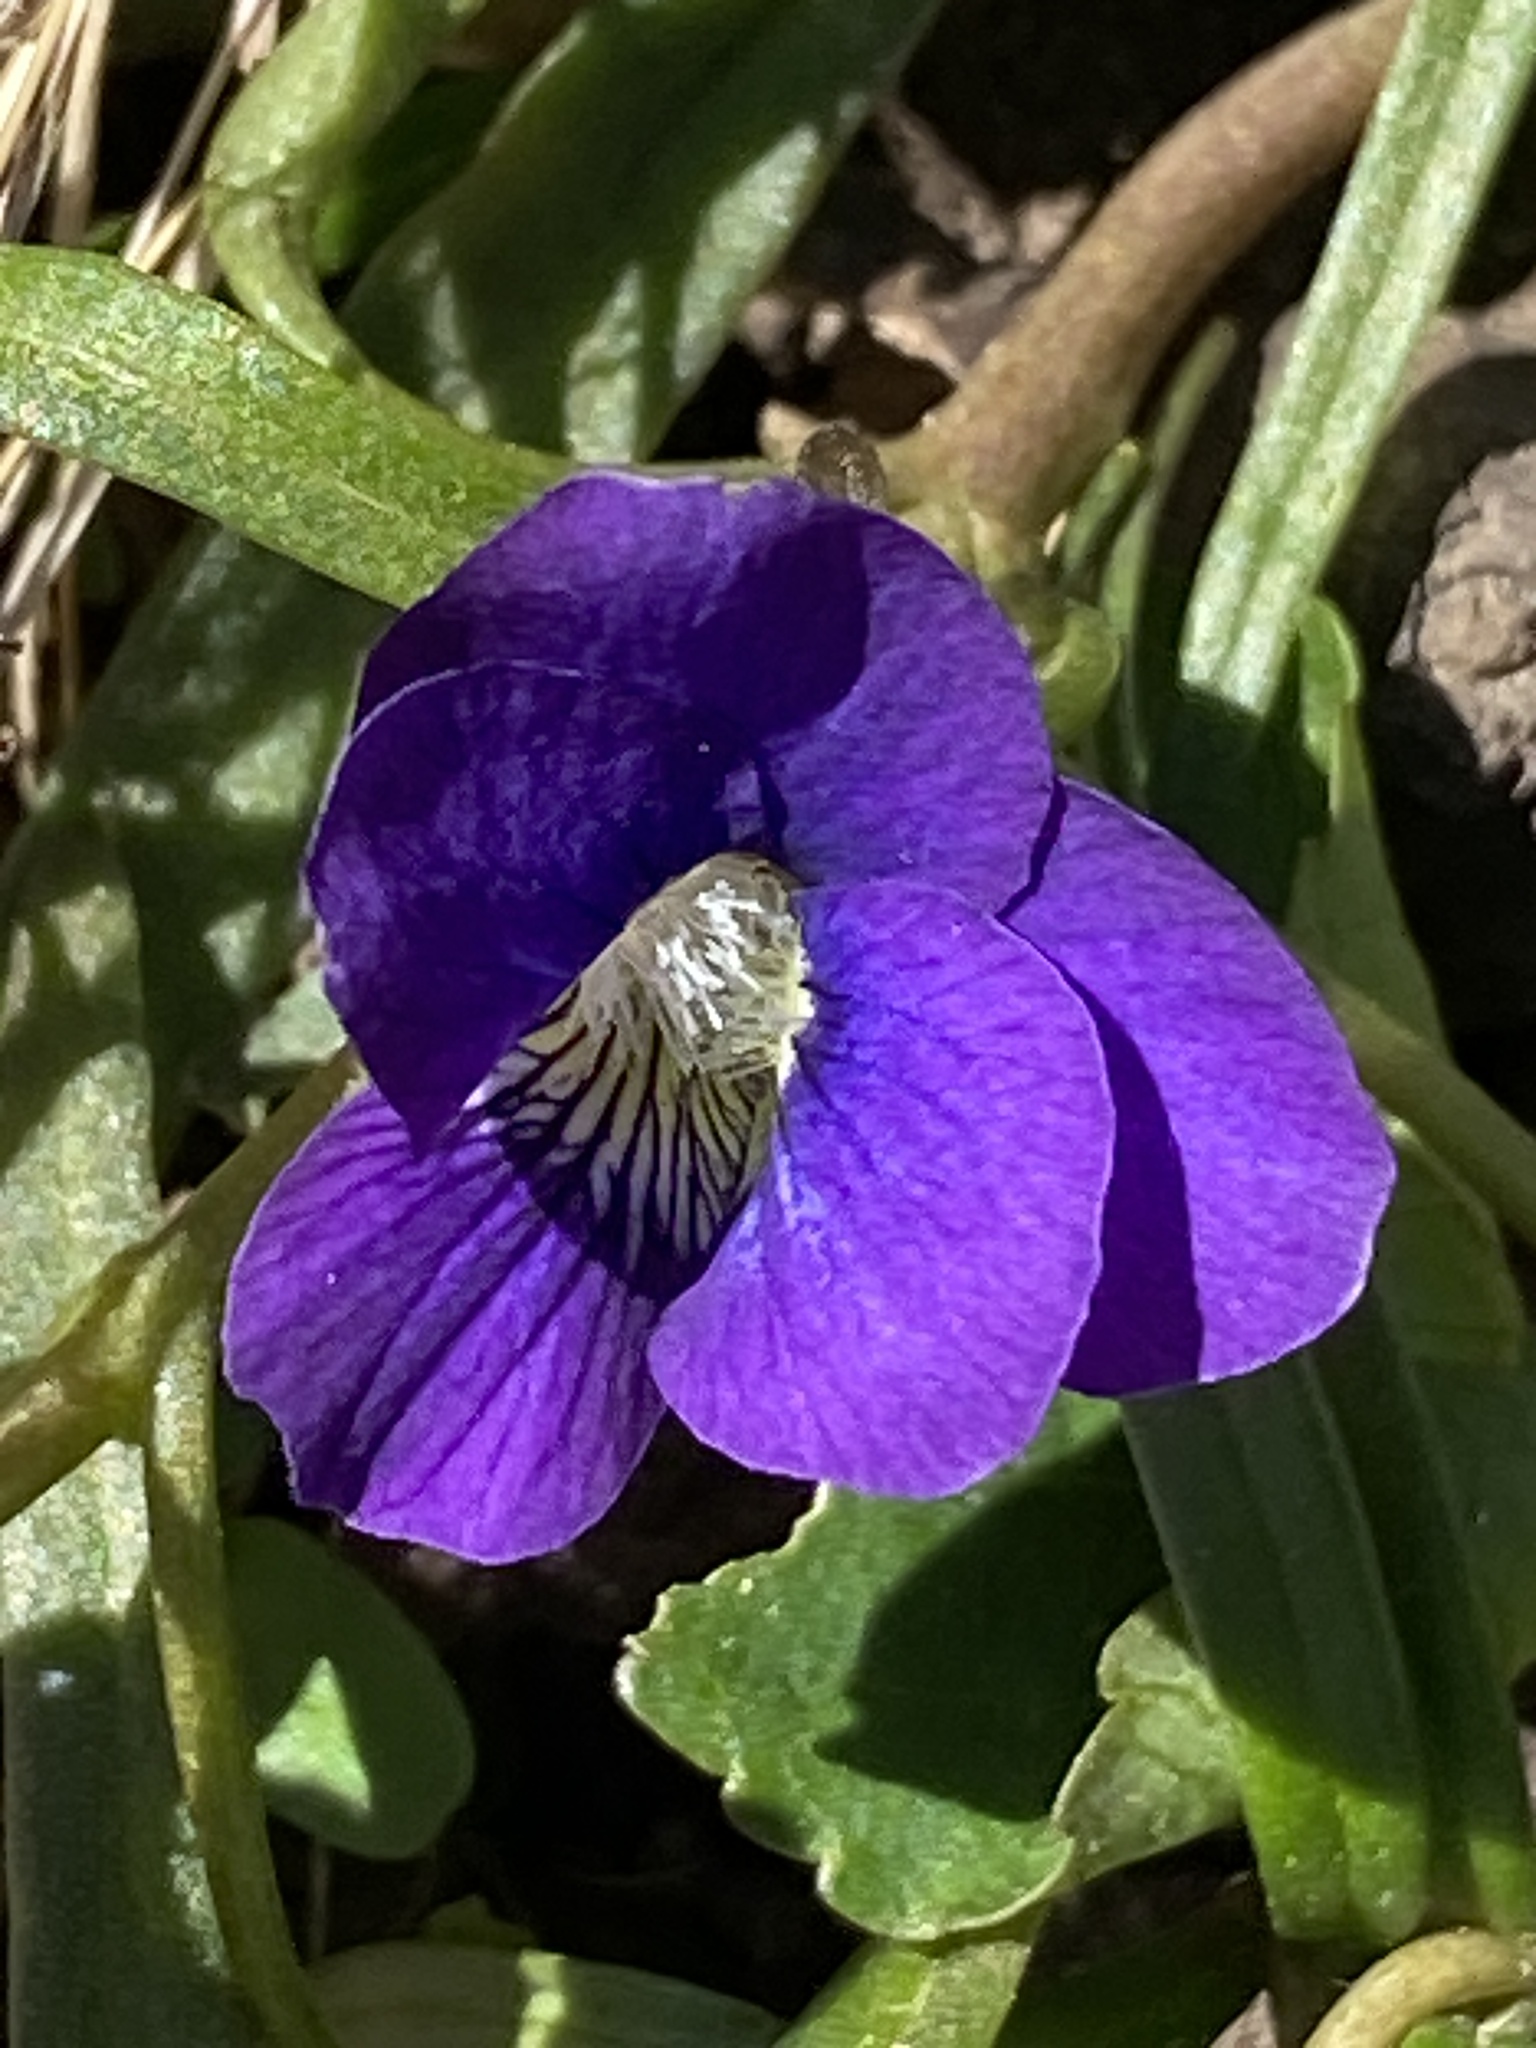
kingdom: Plantae
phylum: Tracheophyta
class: Magnoliopsida
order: Malpighiales
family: Violaceae
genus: Viola
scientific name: Viola sororia
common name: Dooryard violet
